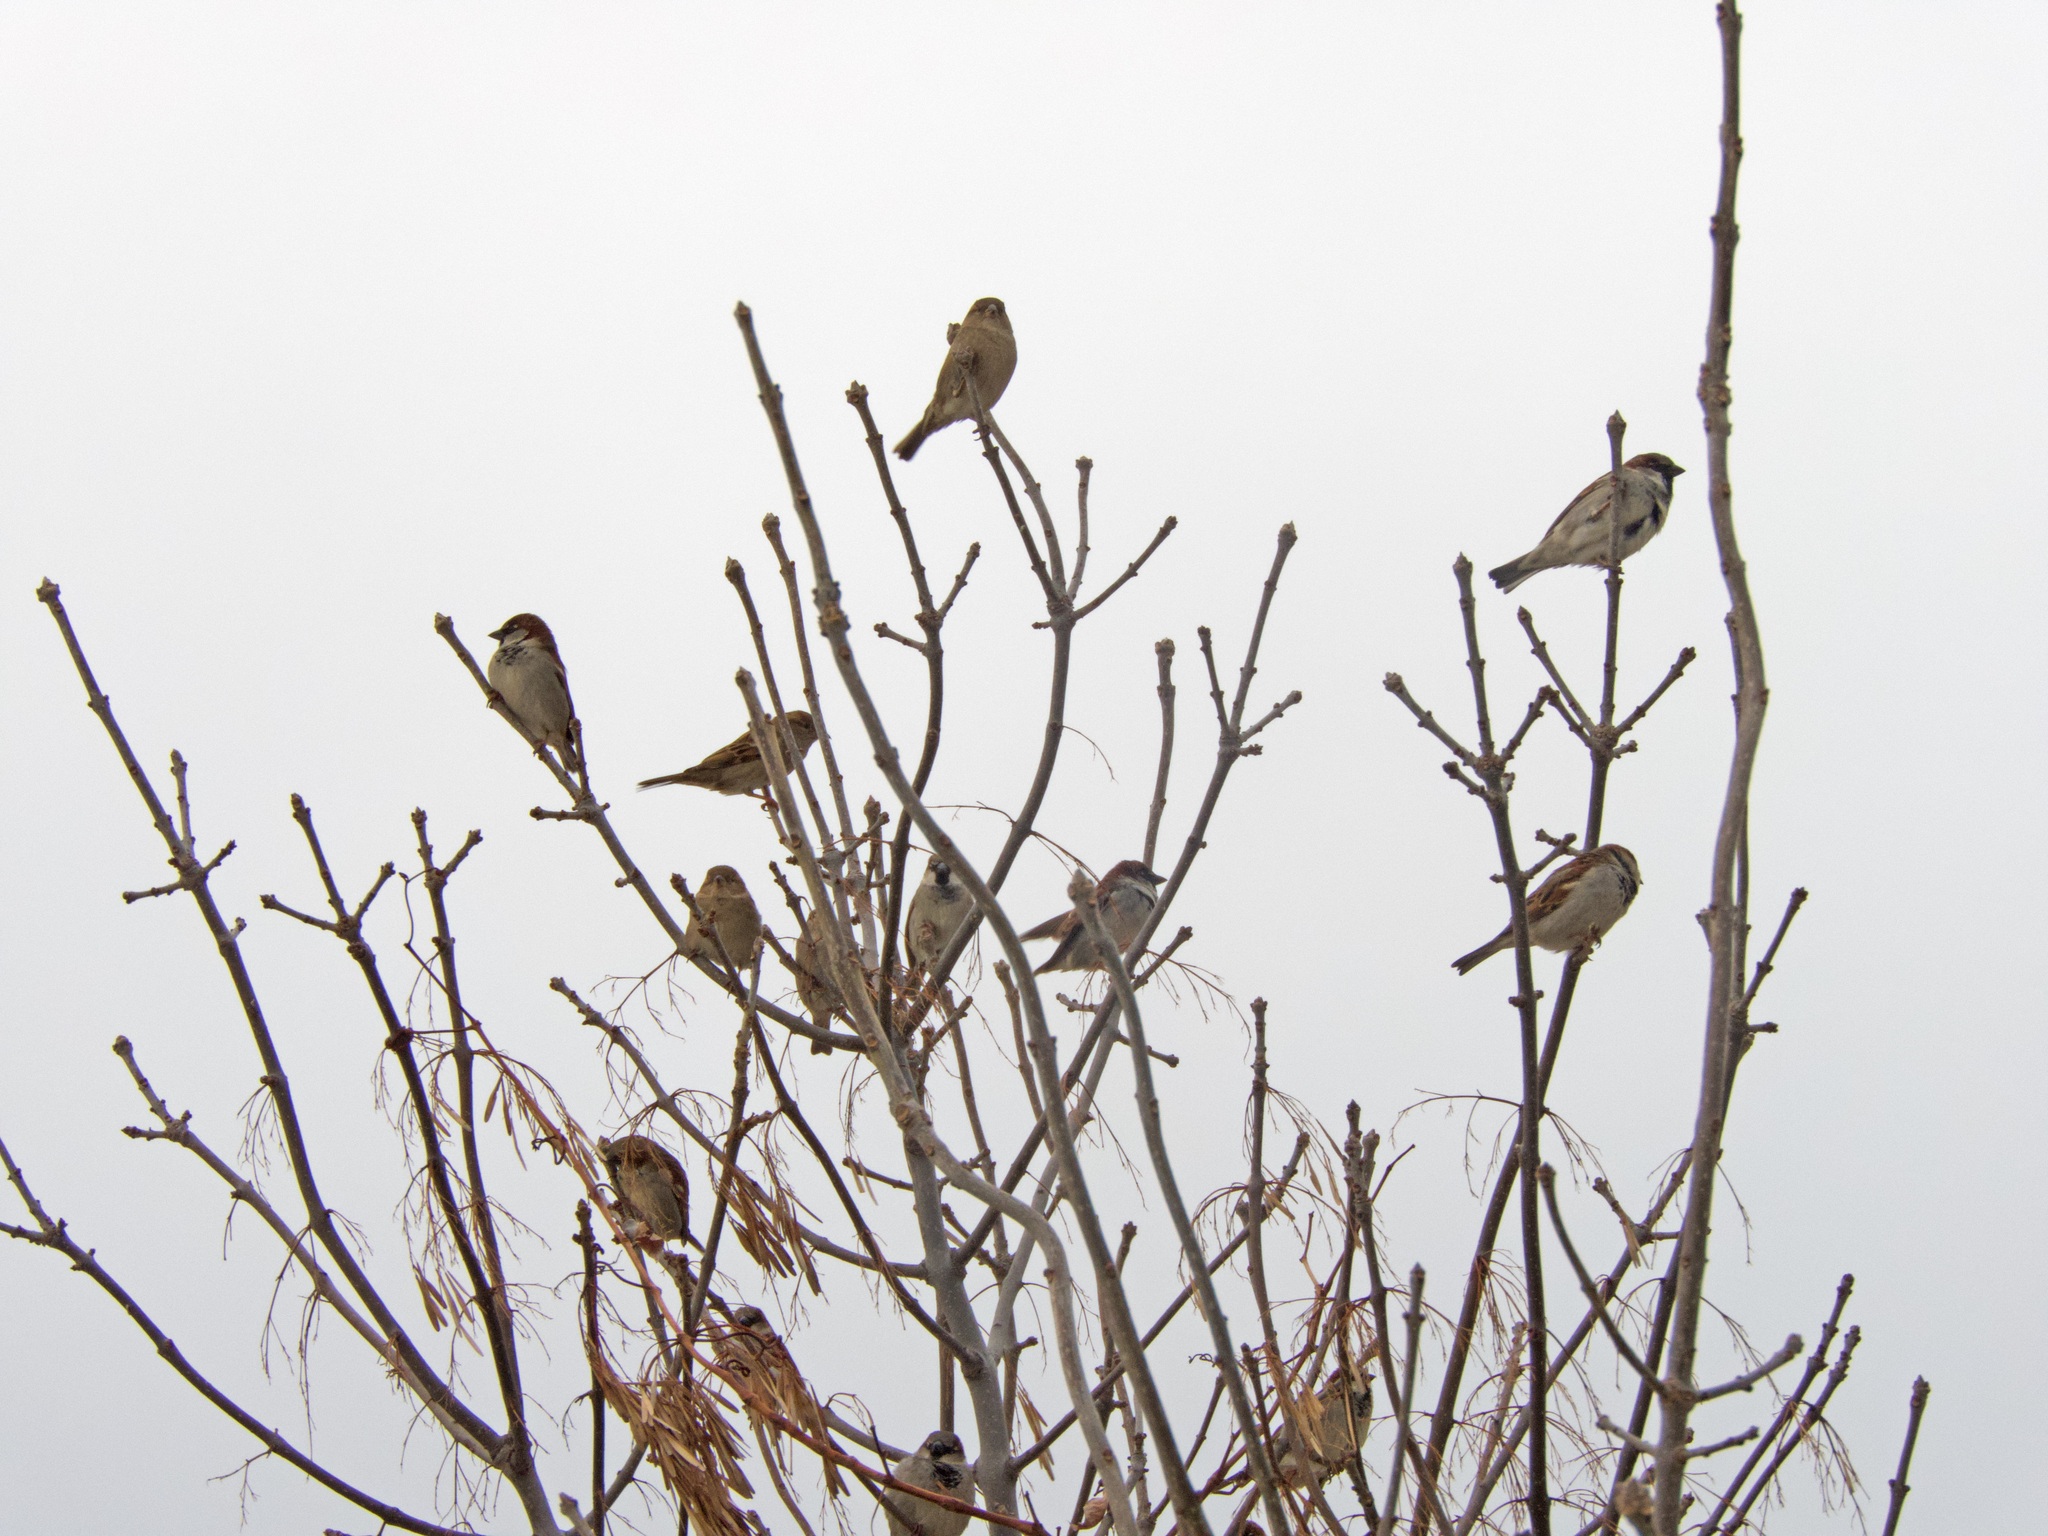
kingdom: Animalia
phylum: Chordata
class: Aves
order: Passeriformes
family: Passeridae
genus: Passer
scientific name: Passer domesticus
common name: House sparrow
